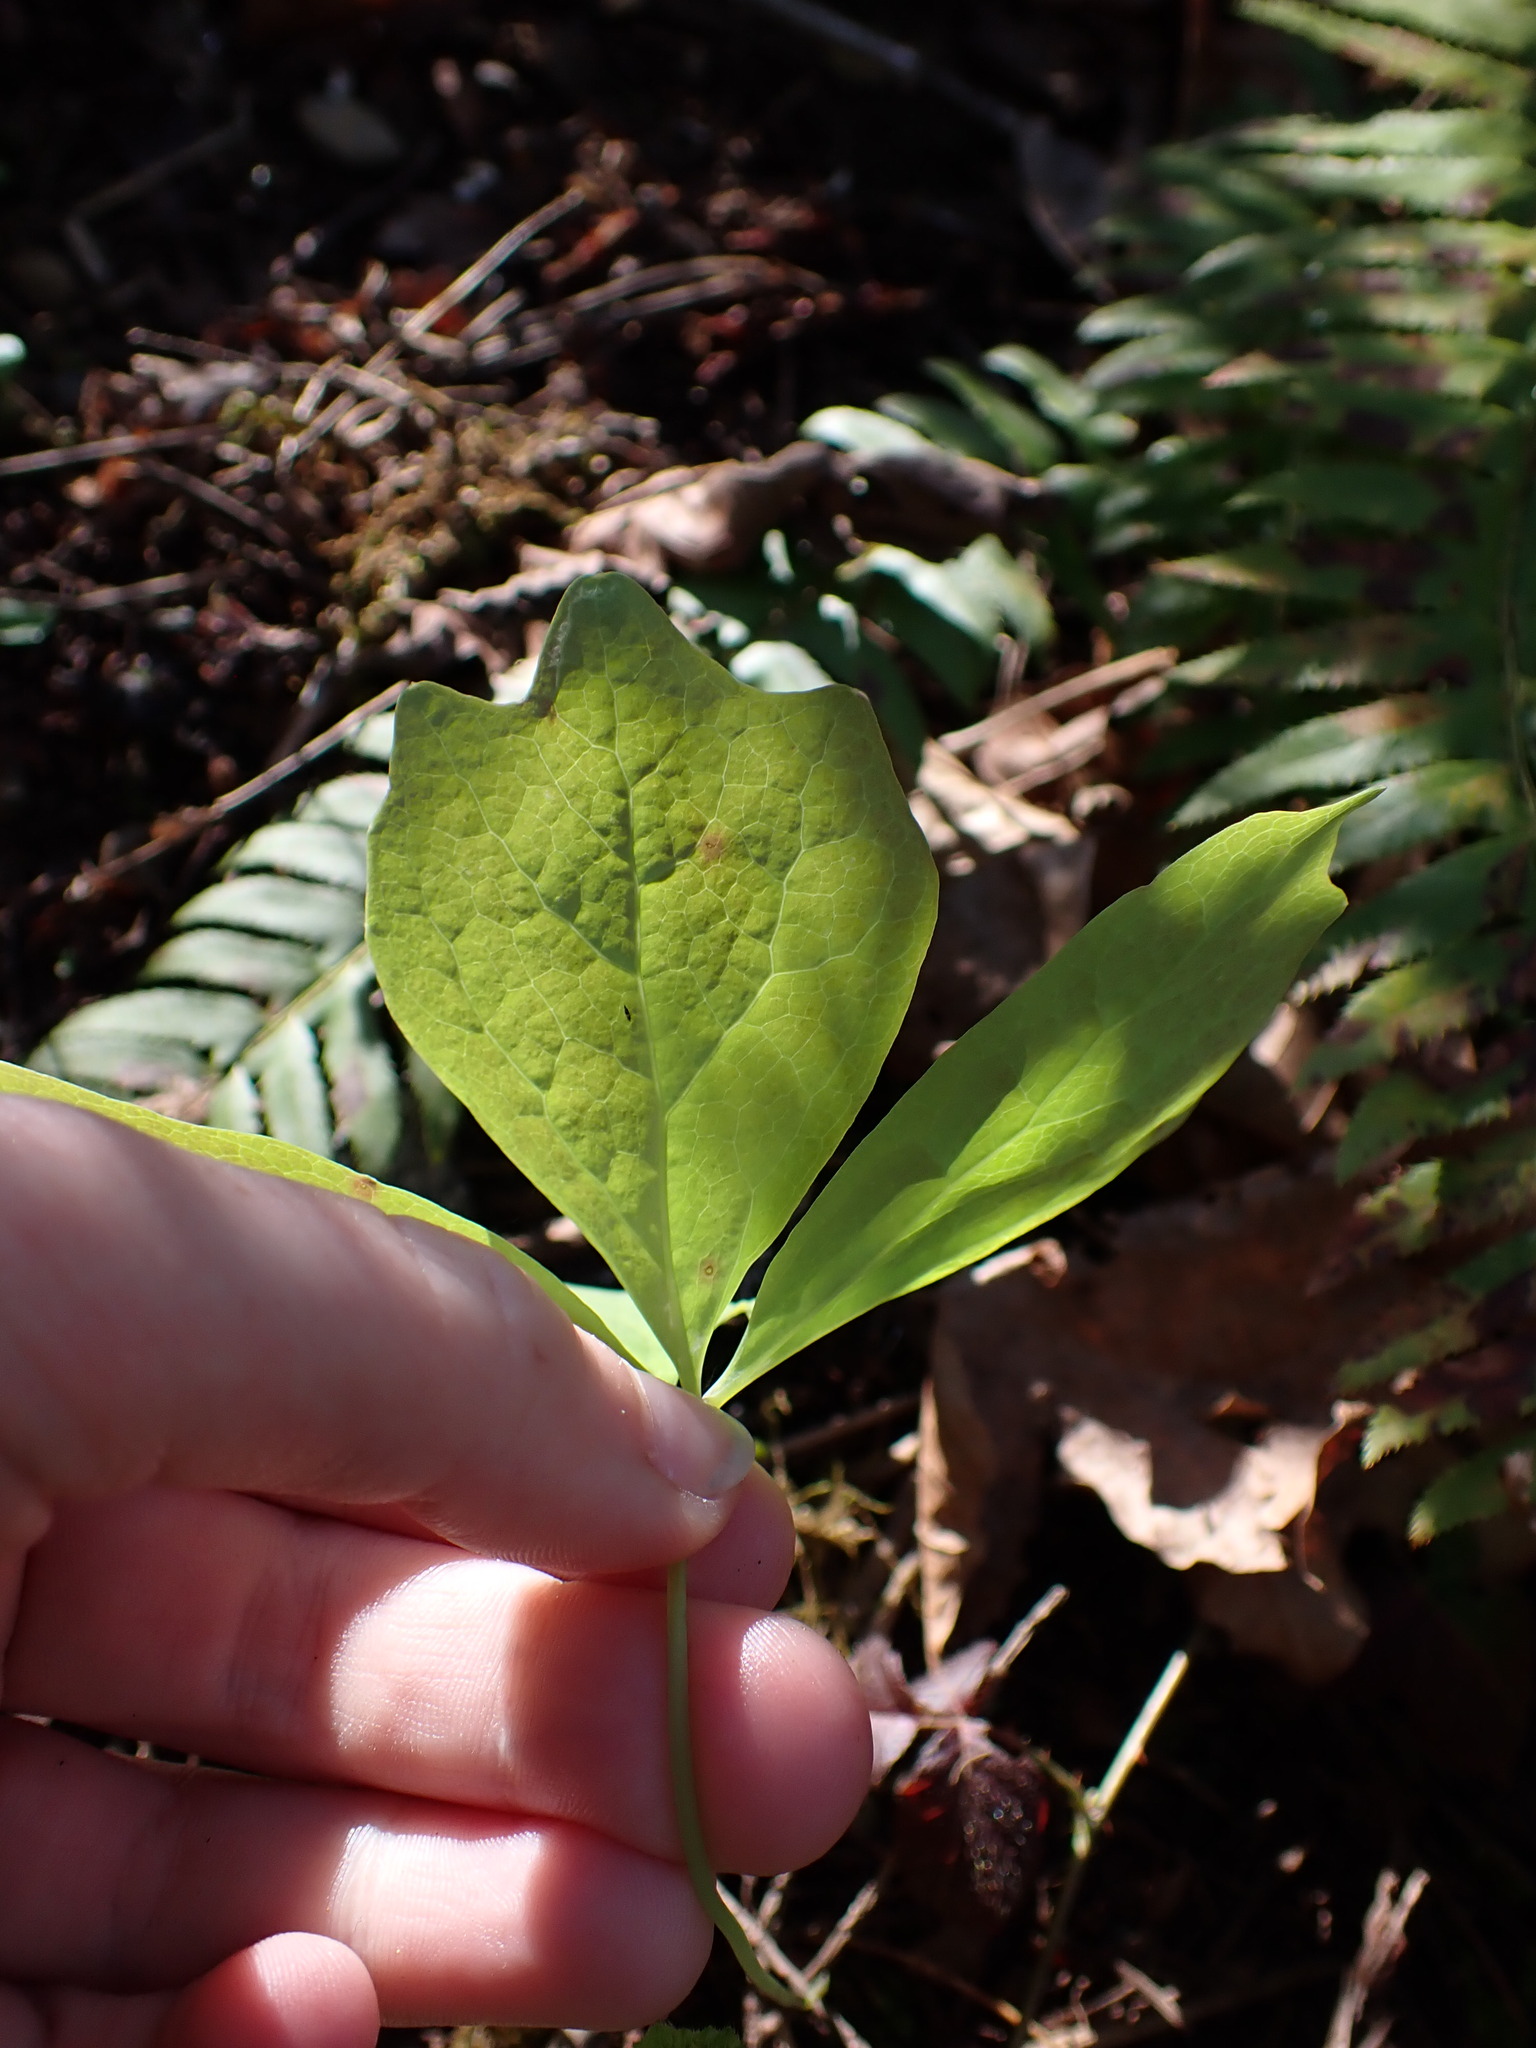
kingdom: Plantae
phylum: Tracheophyta
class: Magnoliopsida
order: Ranunculales
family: Berberidaceae
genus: Achlys
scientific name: Achlys triphylla
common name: Vanilla-leaf
